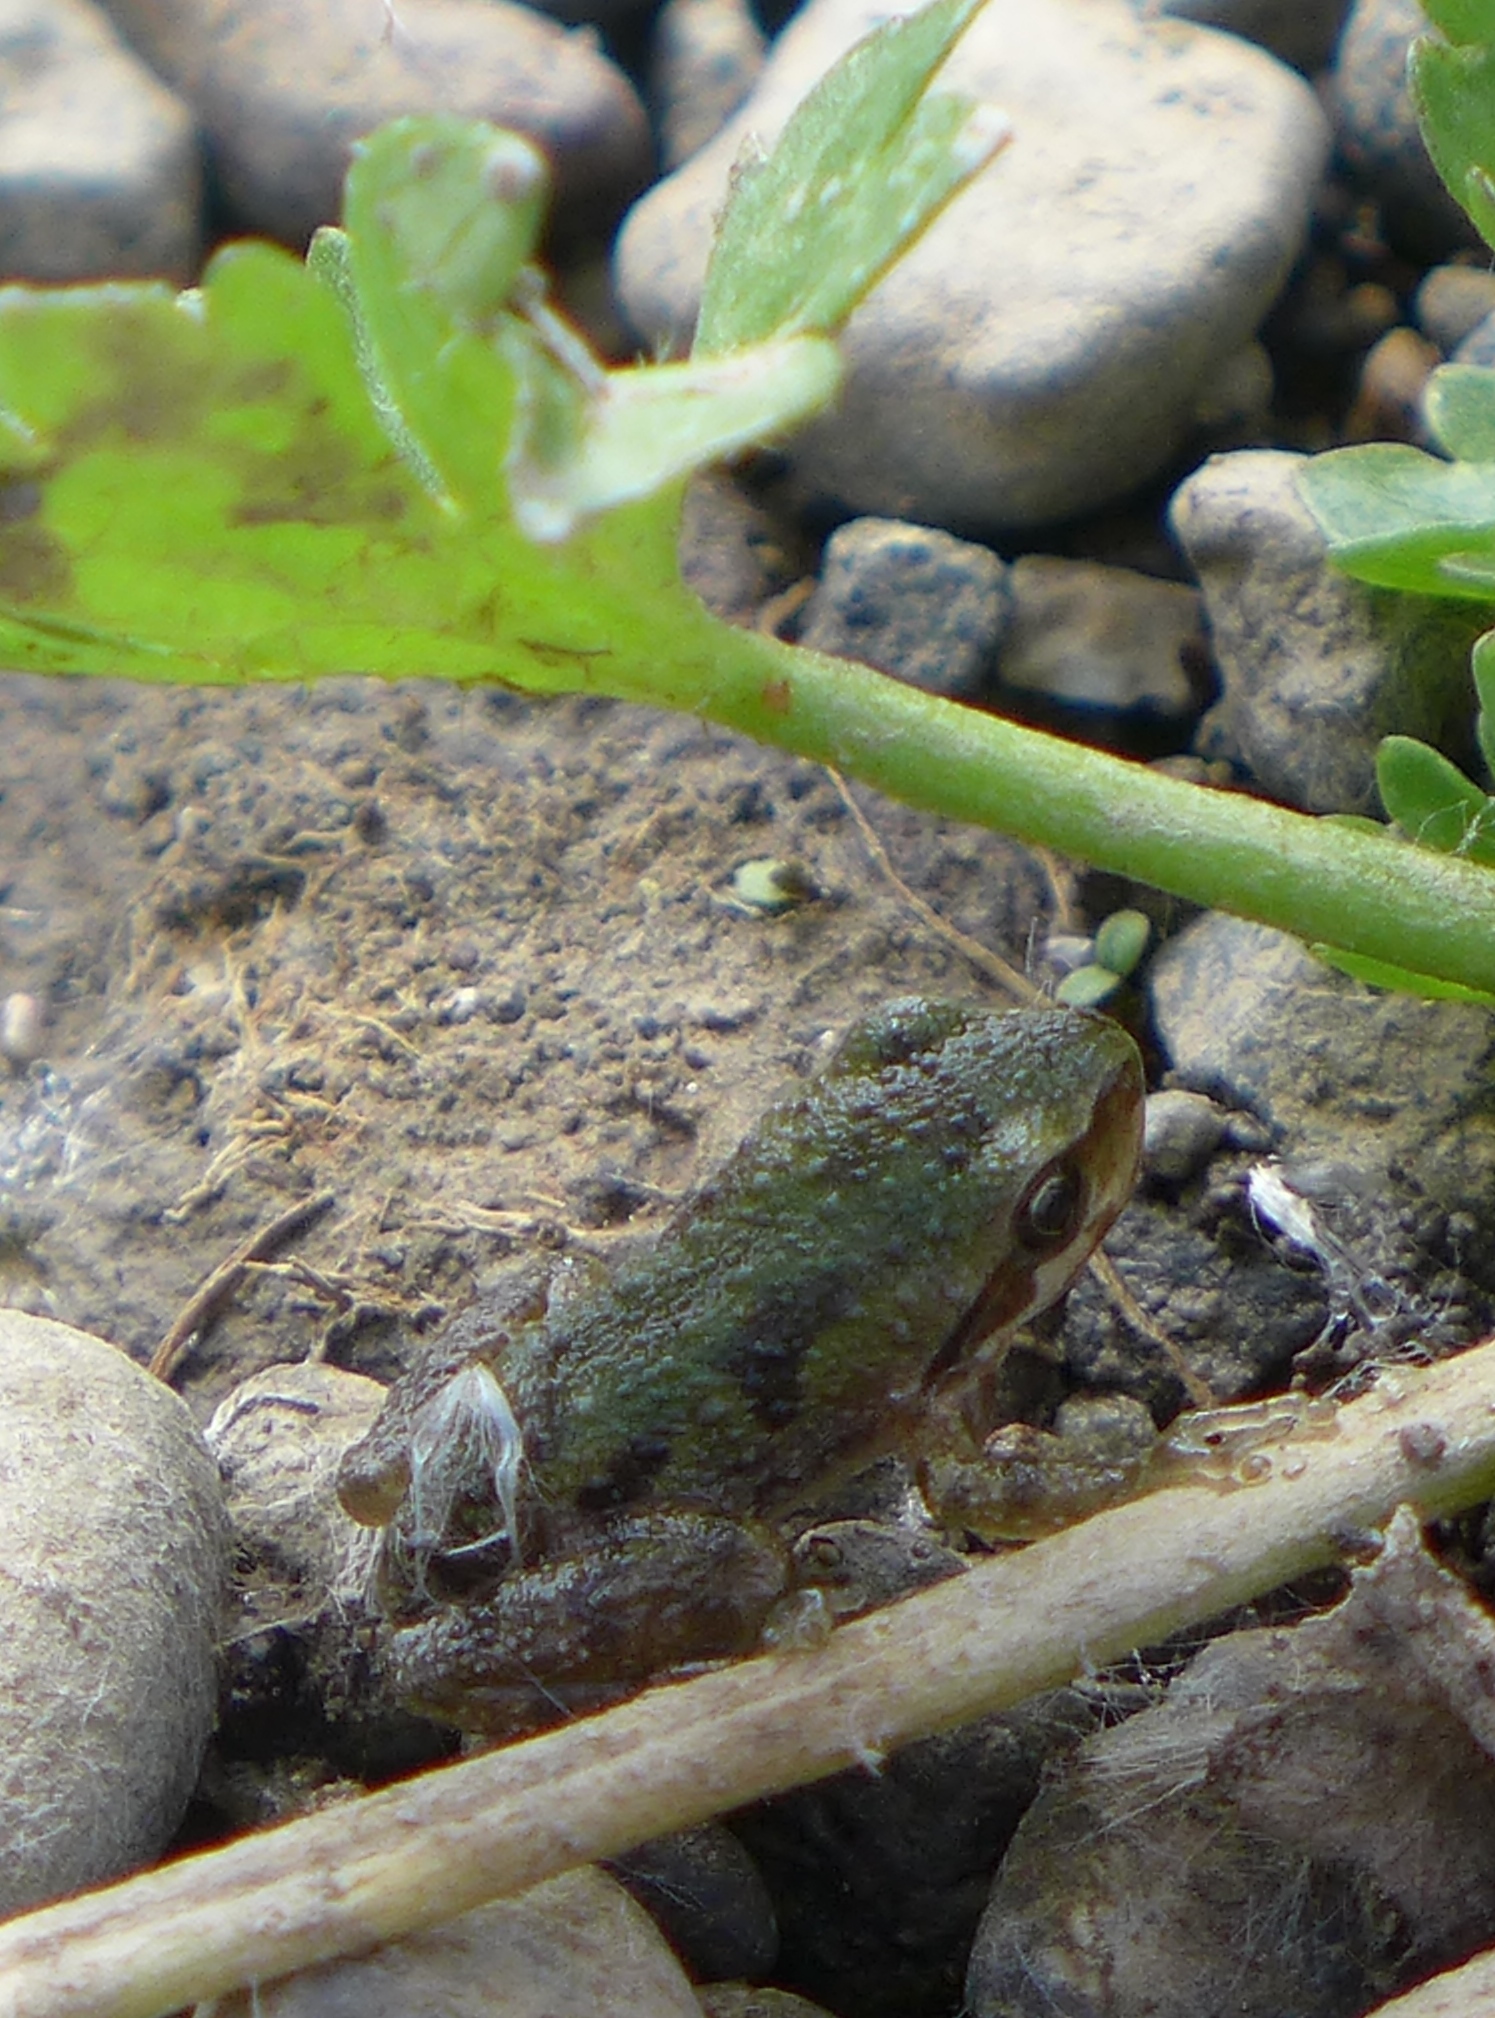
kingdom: Animalia
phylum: Chordata
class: Amphibia
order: Anura
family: Hylidae
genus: Pseudacris
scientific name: Pseudacris regilla
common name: Pacific chorus frog
